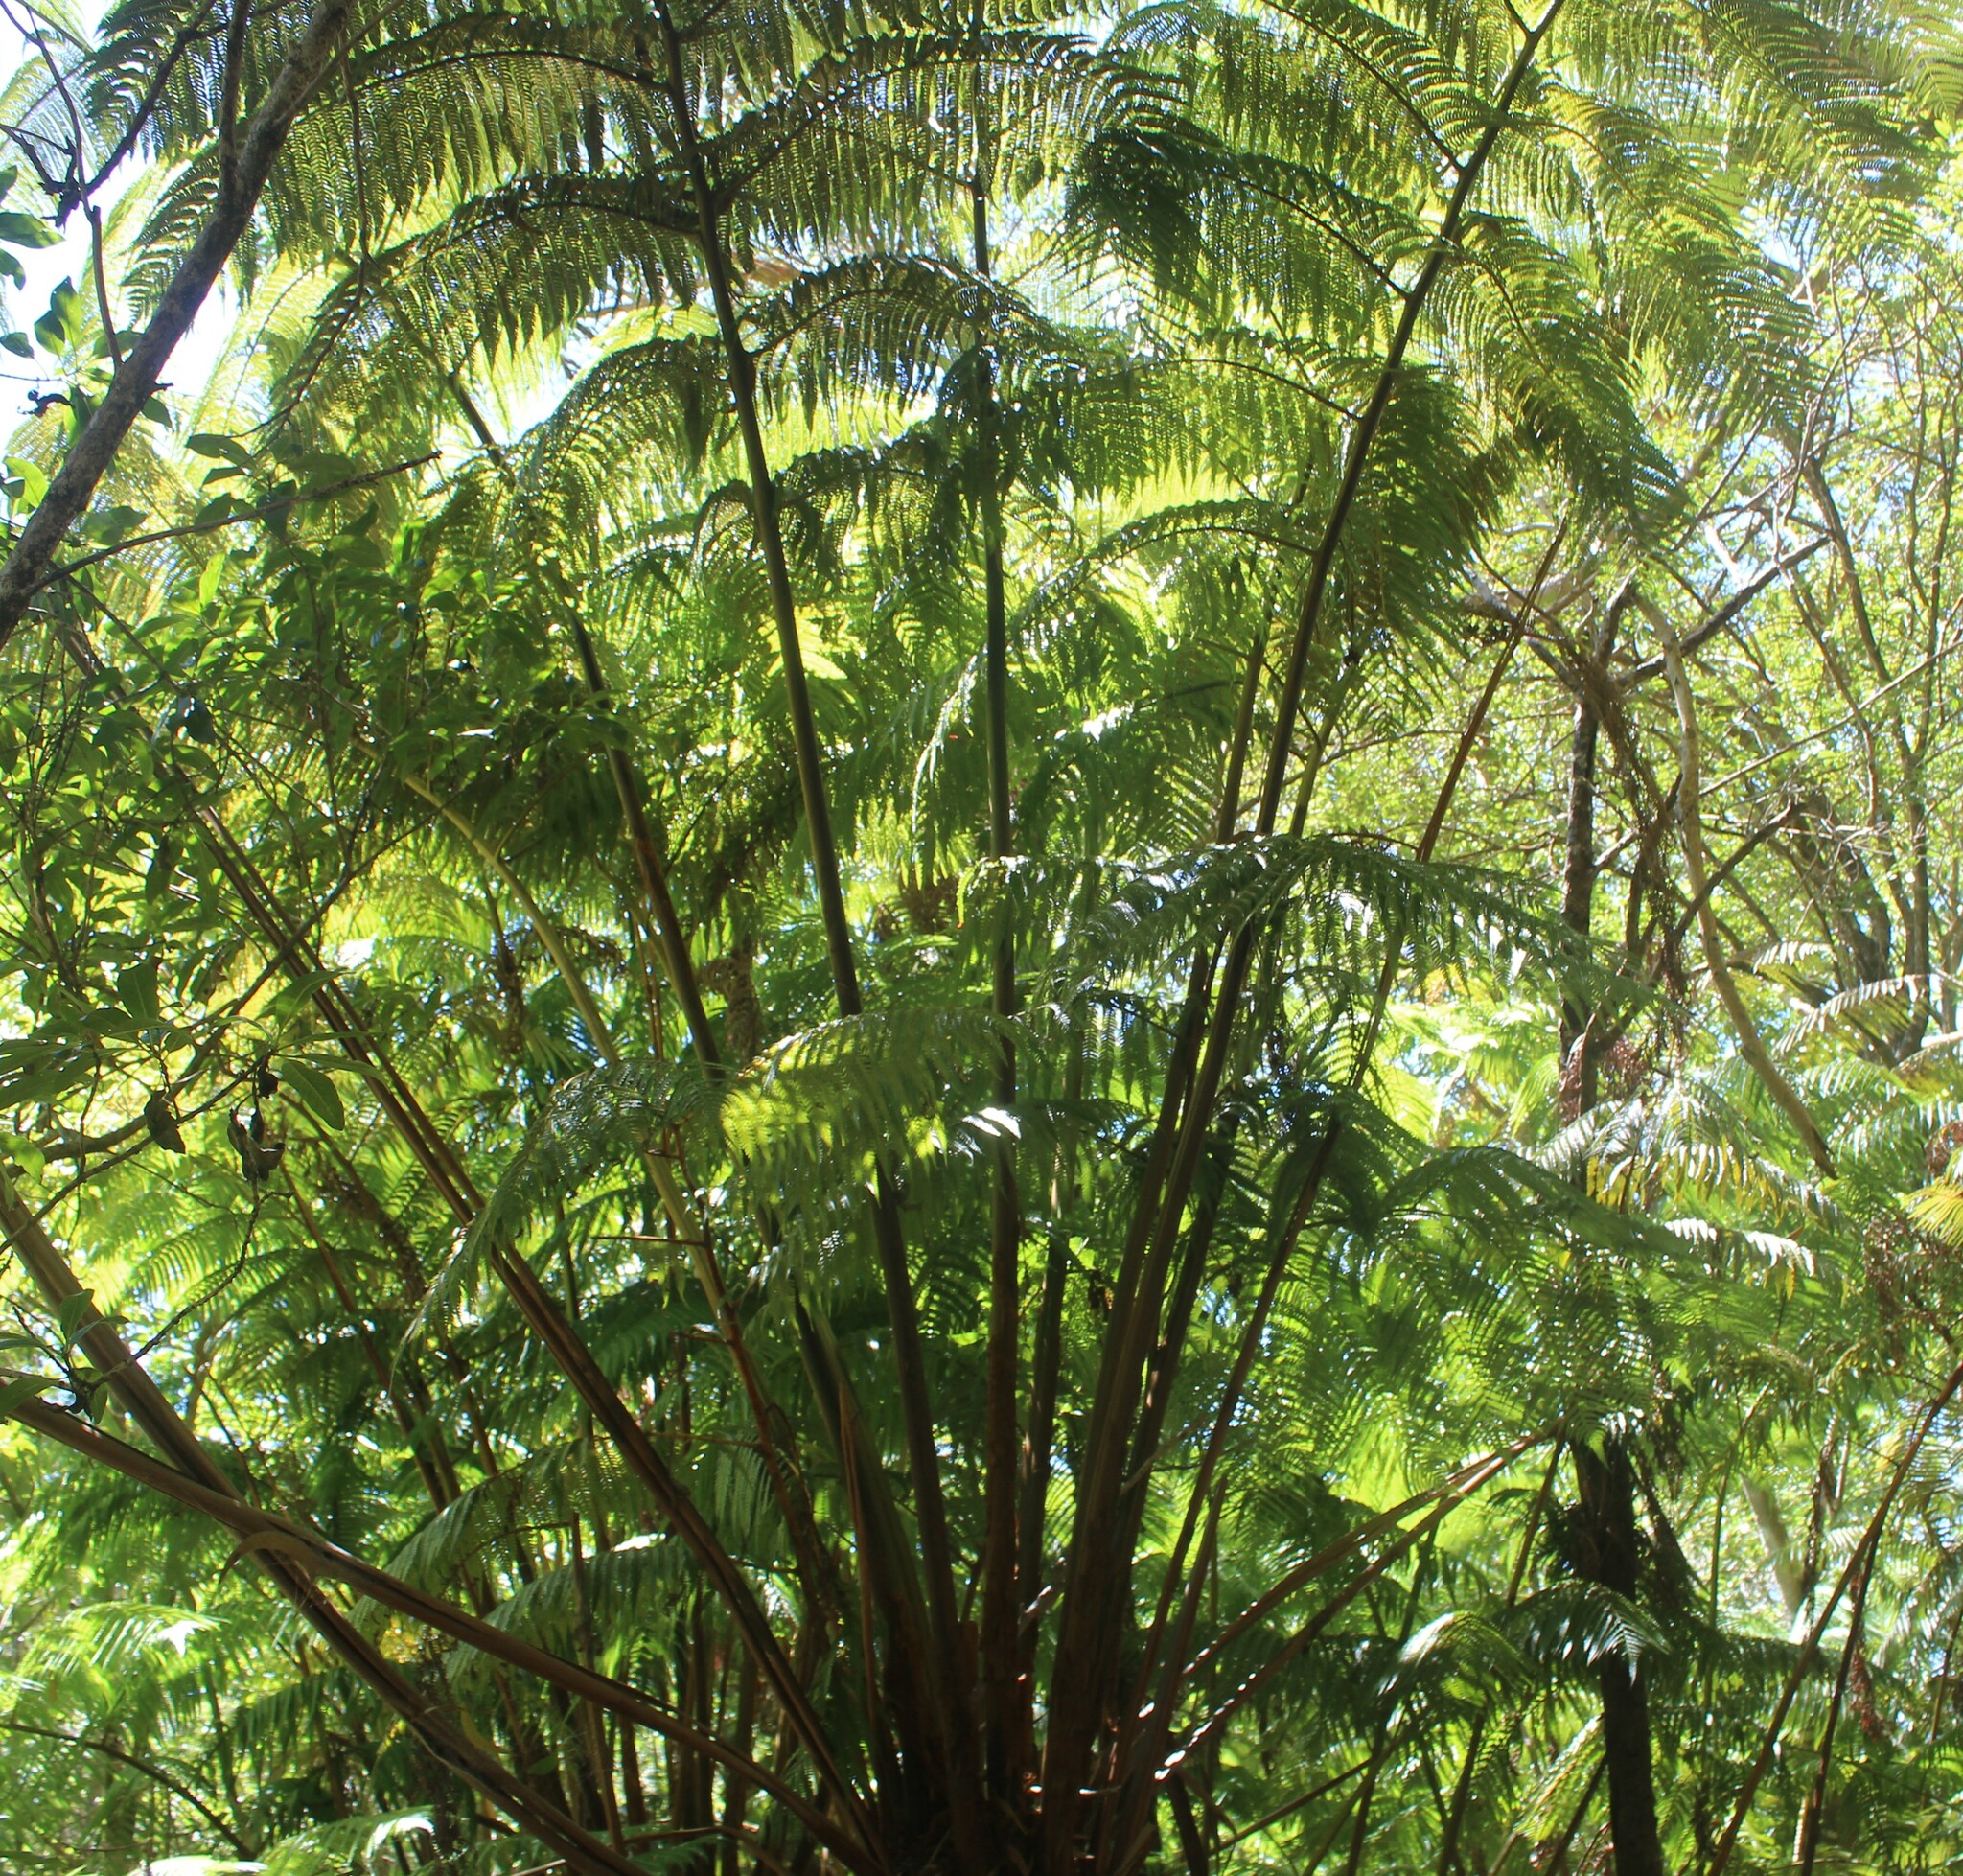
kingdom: Plantae
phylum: Tracheophyta
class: Polypodiopsida
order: Cyatheales
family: Cibotiaceae
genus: Cibotium
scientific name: Cibotium glaucum
